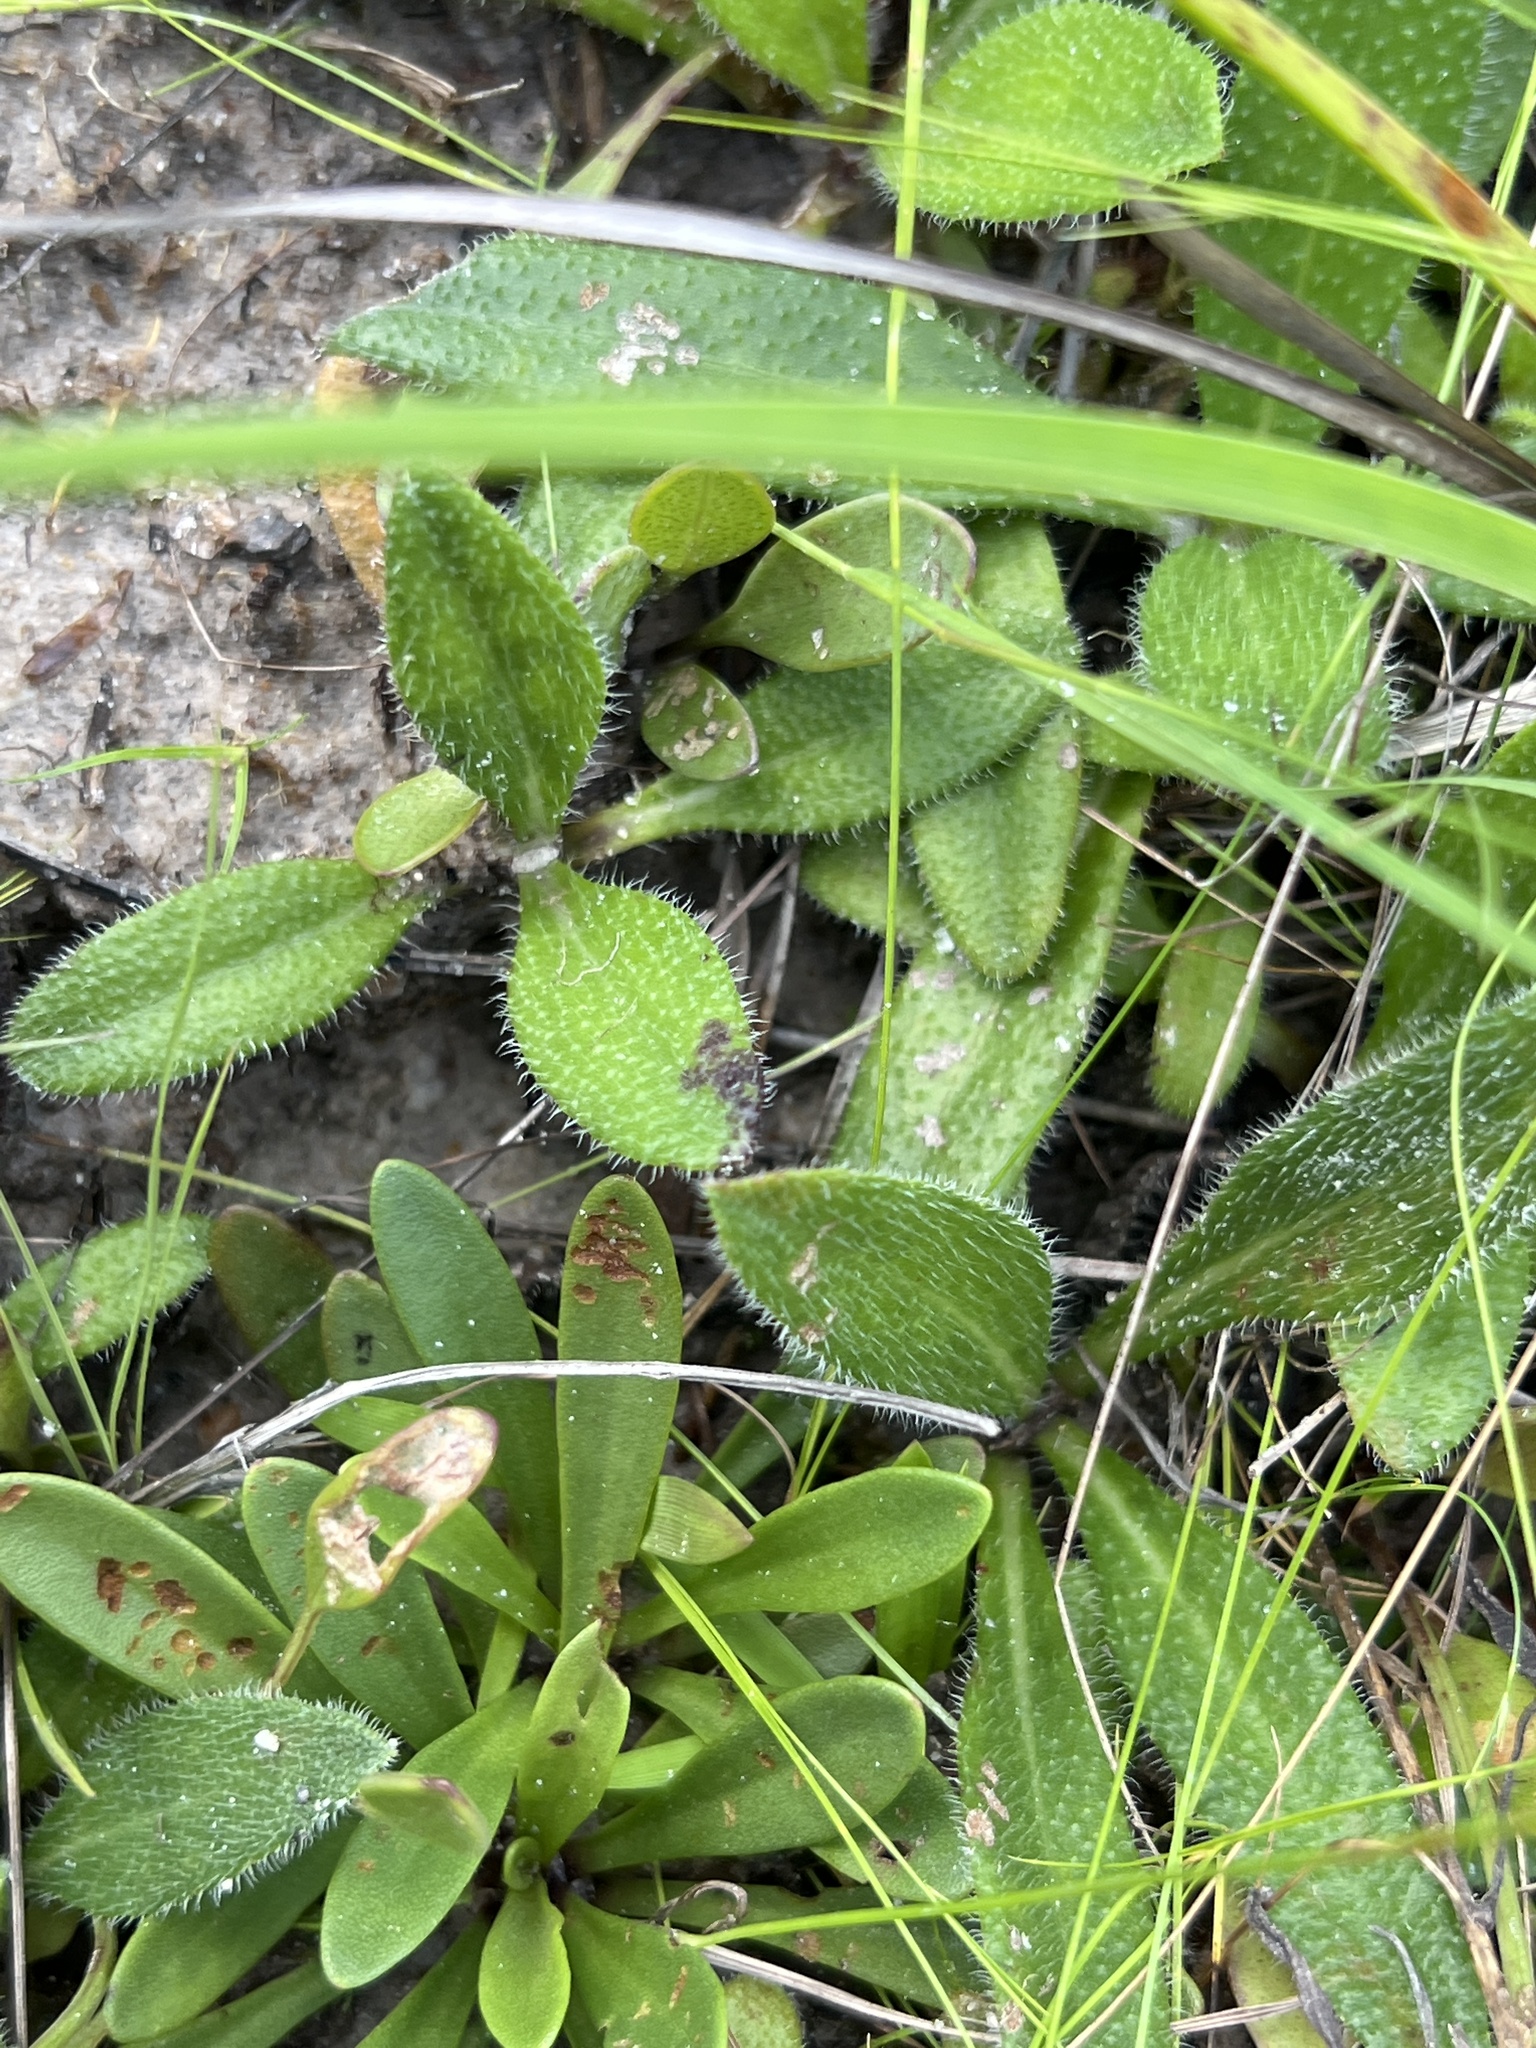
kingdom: Plantae
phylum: Tracheophyta
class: Magnoliopsida
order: Asterales
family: Asteraceae
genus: Helianthus
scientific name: Helianthus heterophyllus
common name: Wetland sunflower
